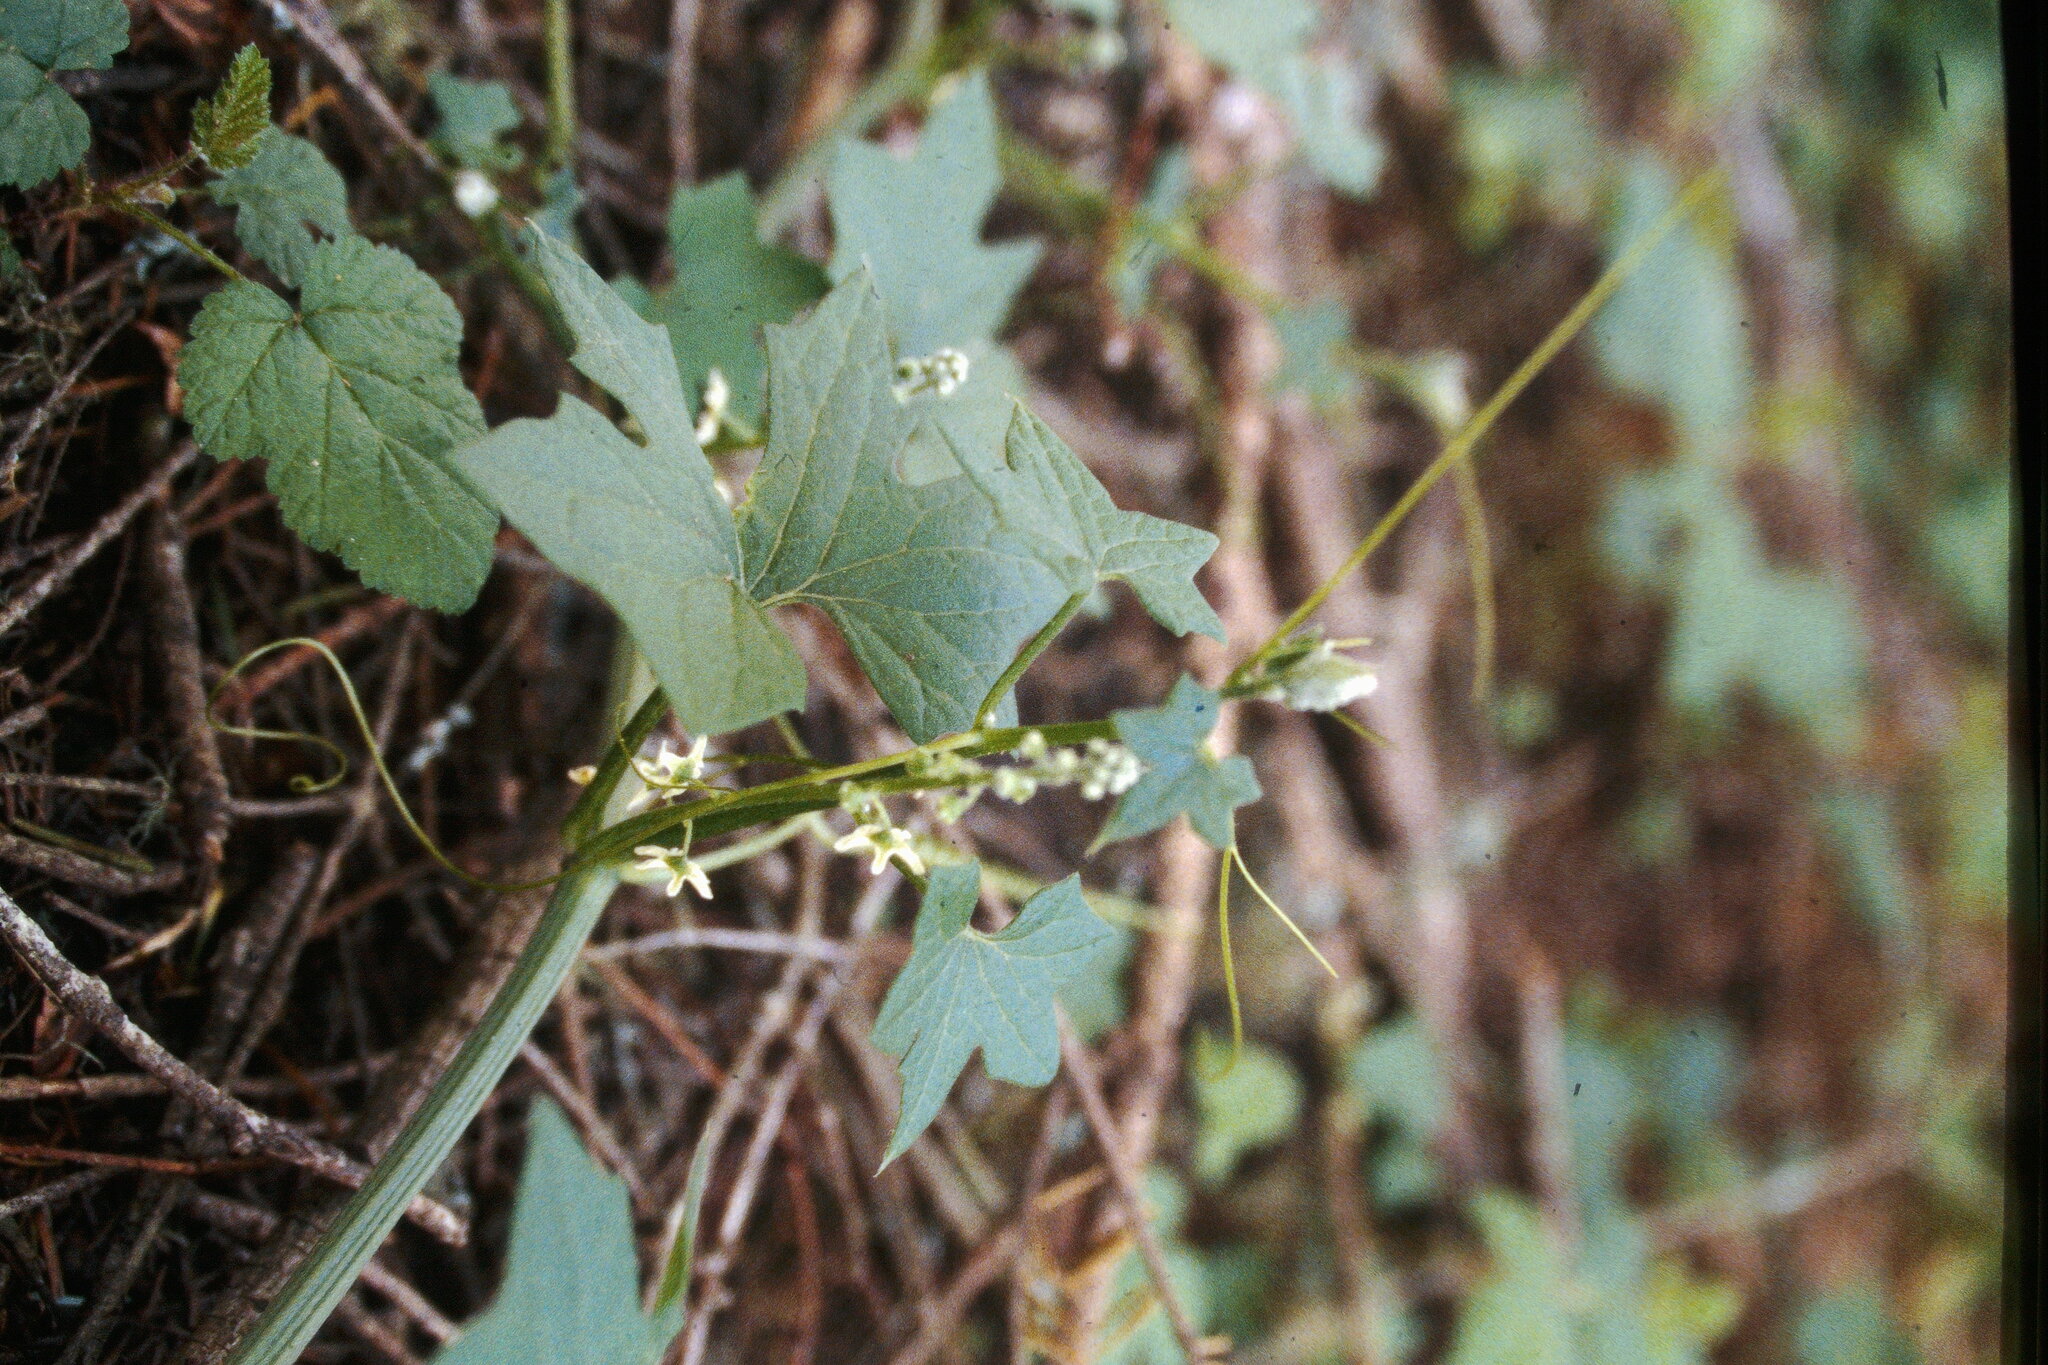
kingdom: Plantae
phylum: Tracheophyta
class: Magnoliopsida
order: Cucurbitales
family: Cucurbitaceae
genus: Marah
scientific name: Marah fabacea
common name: California manroot
